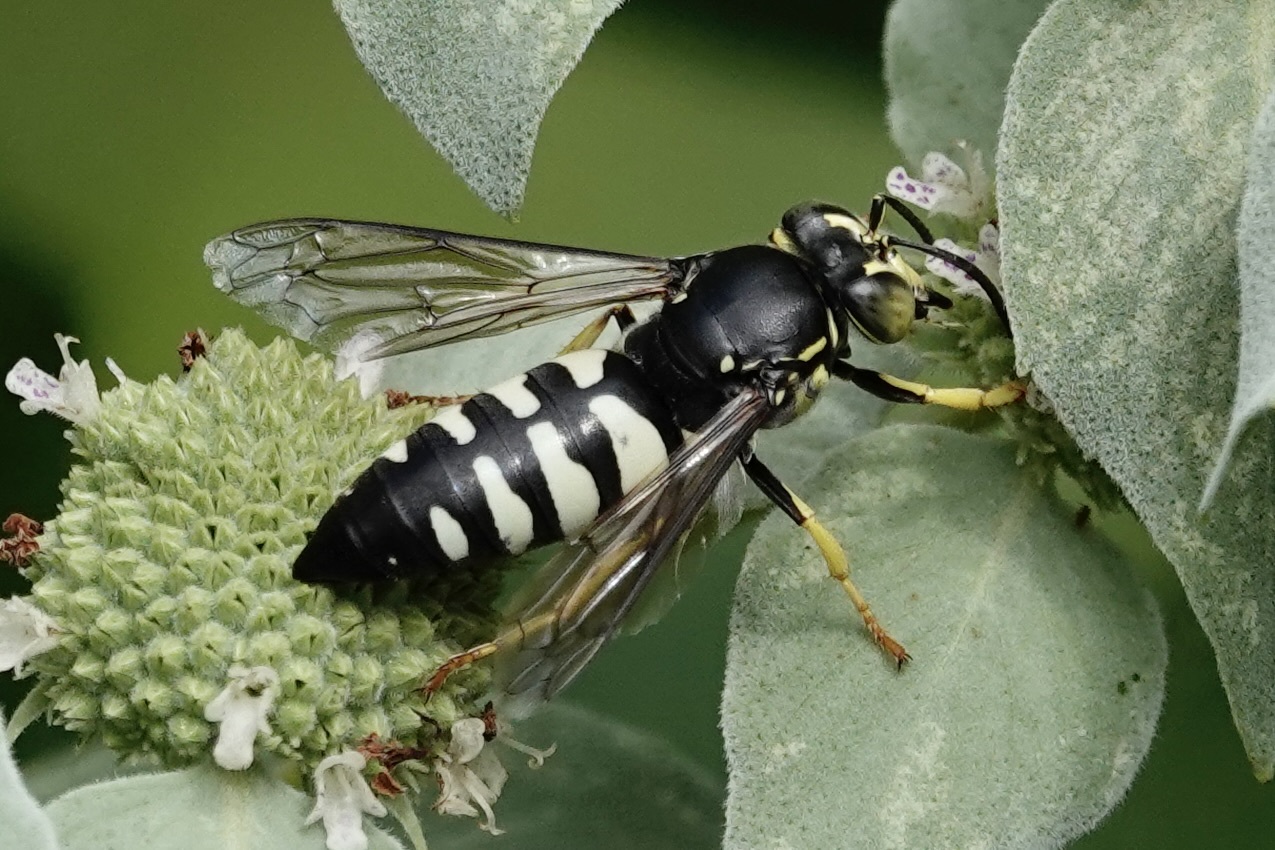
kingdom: Animalia
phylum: Arthropoda
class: Insecta
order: Hymenoptera
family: Crabronidae
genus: Bicyrtes
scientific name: Bicyrtes quadrifasciatus
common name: Four-banded stink bug hunter wasp
